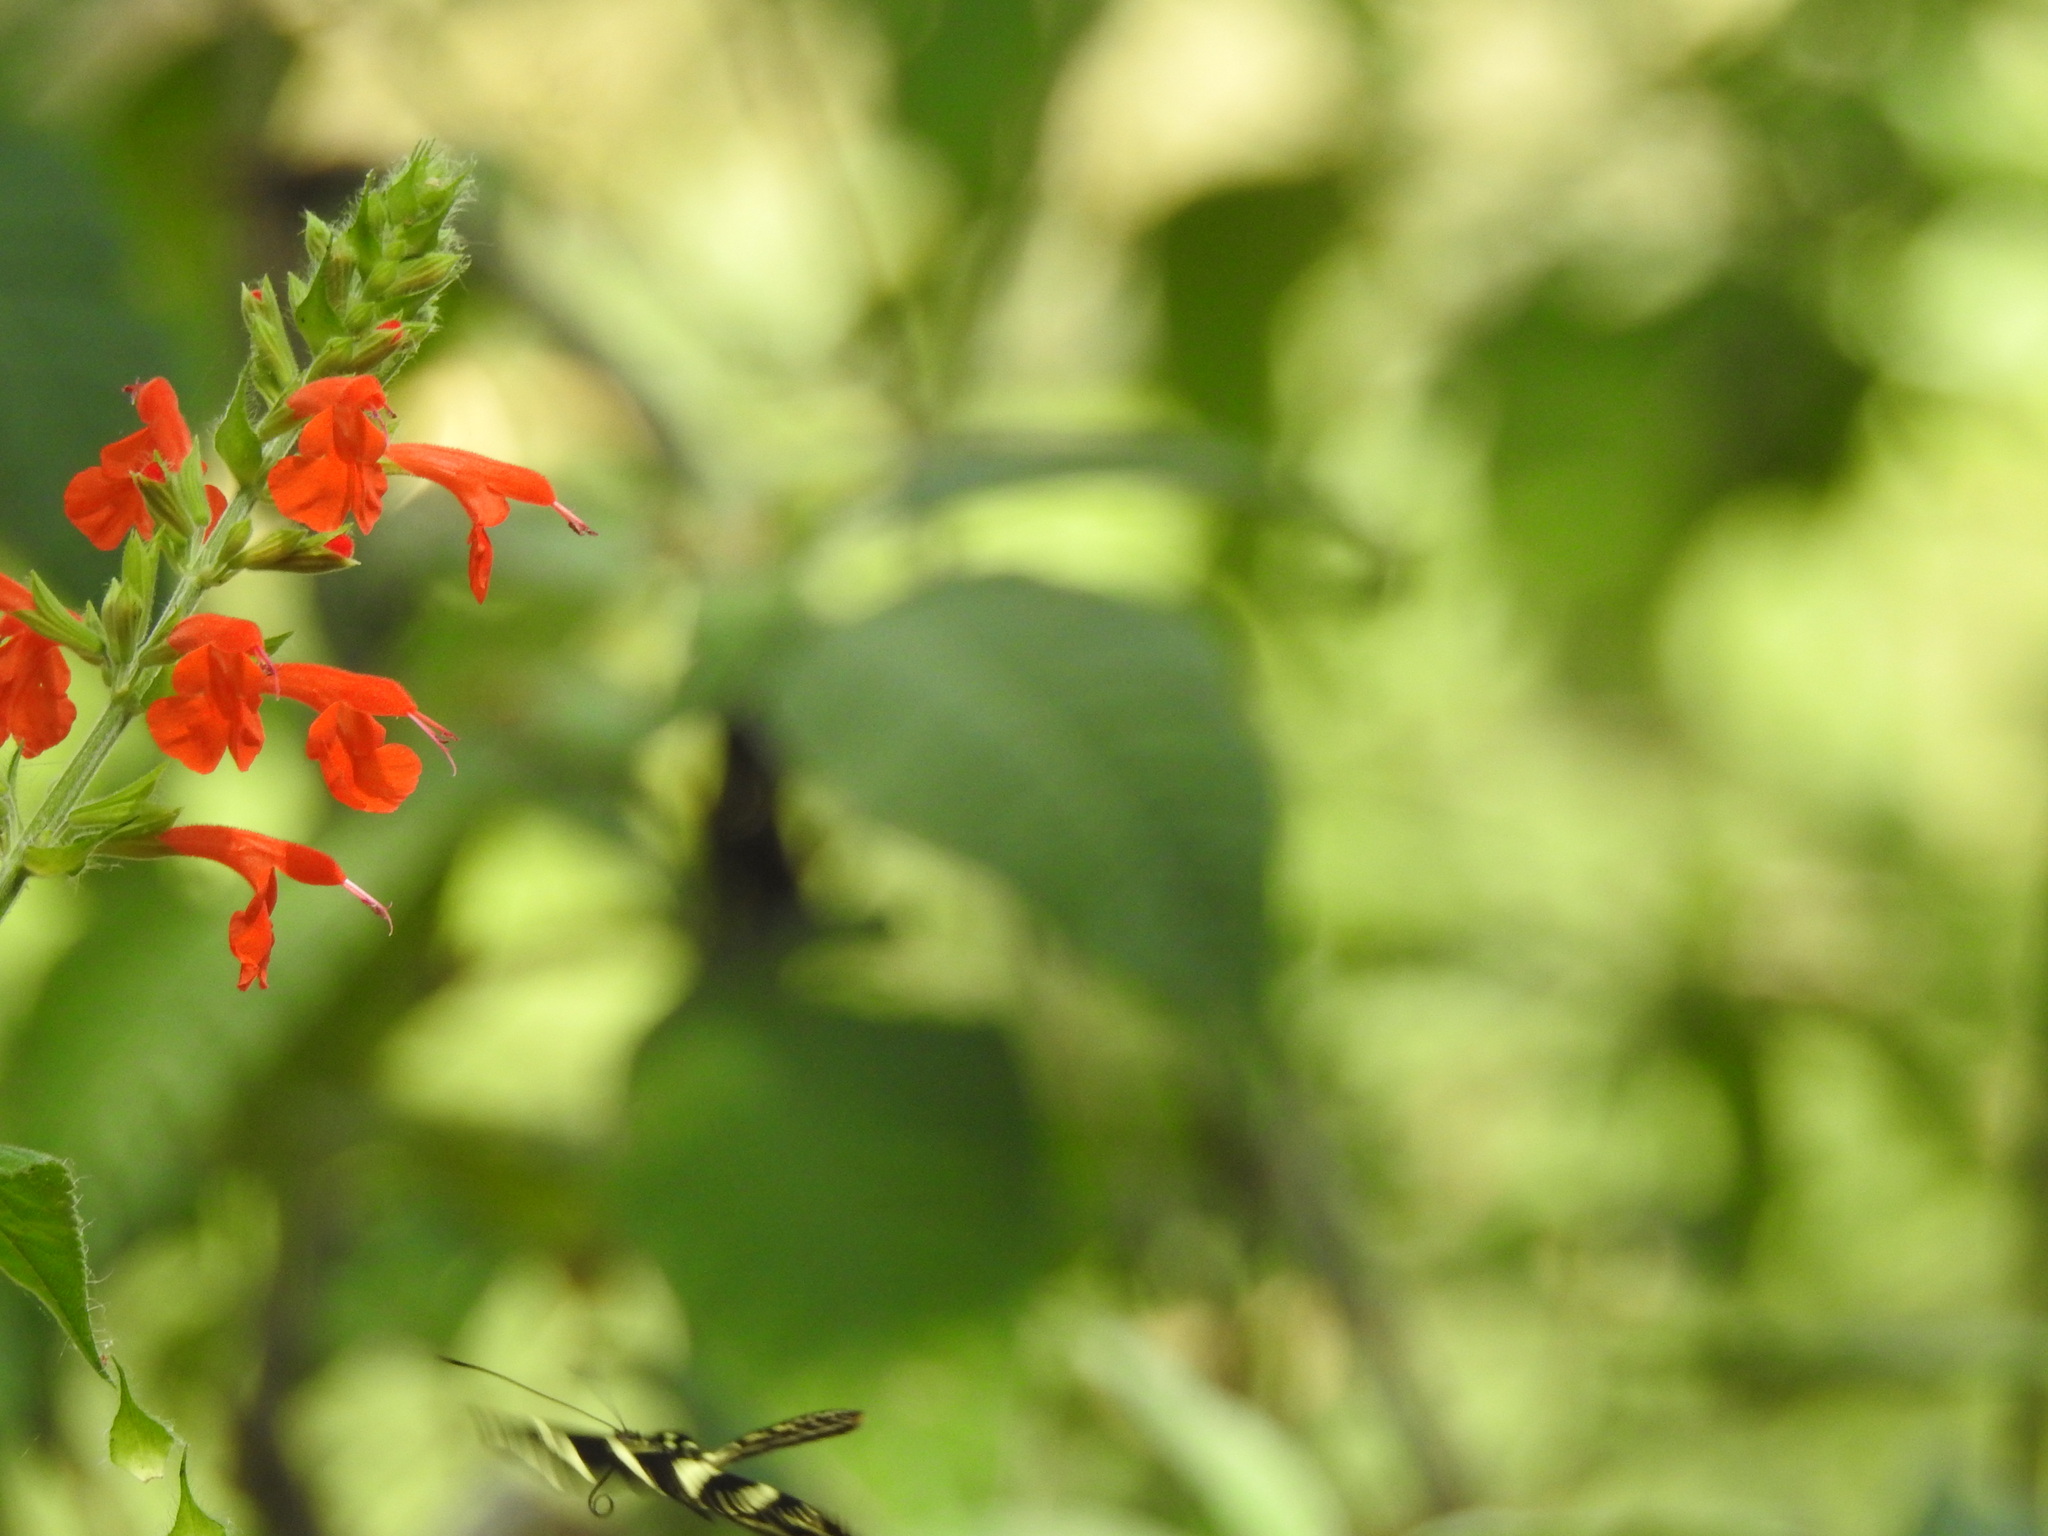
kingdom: Animalia
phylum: Arthropoda
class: Insecta
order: Lepidoptera
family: Nymphalidae
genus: Heliconius
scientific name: Heliconius charithonia
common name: Zebra long wing
